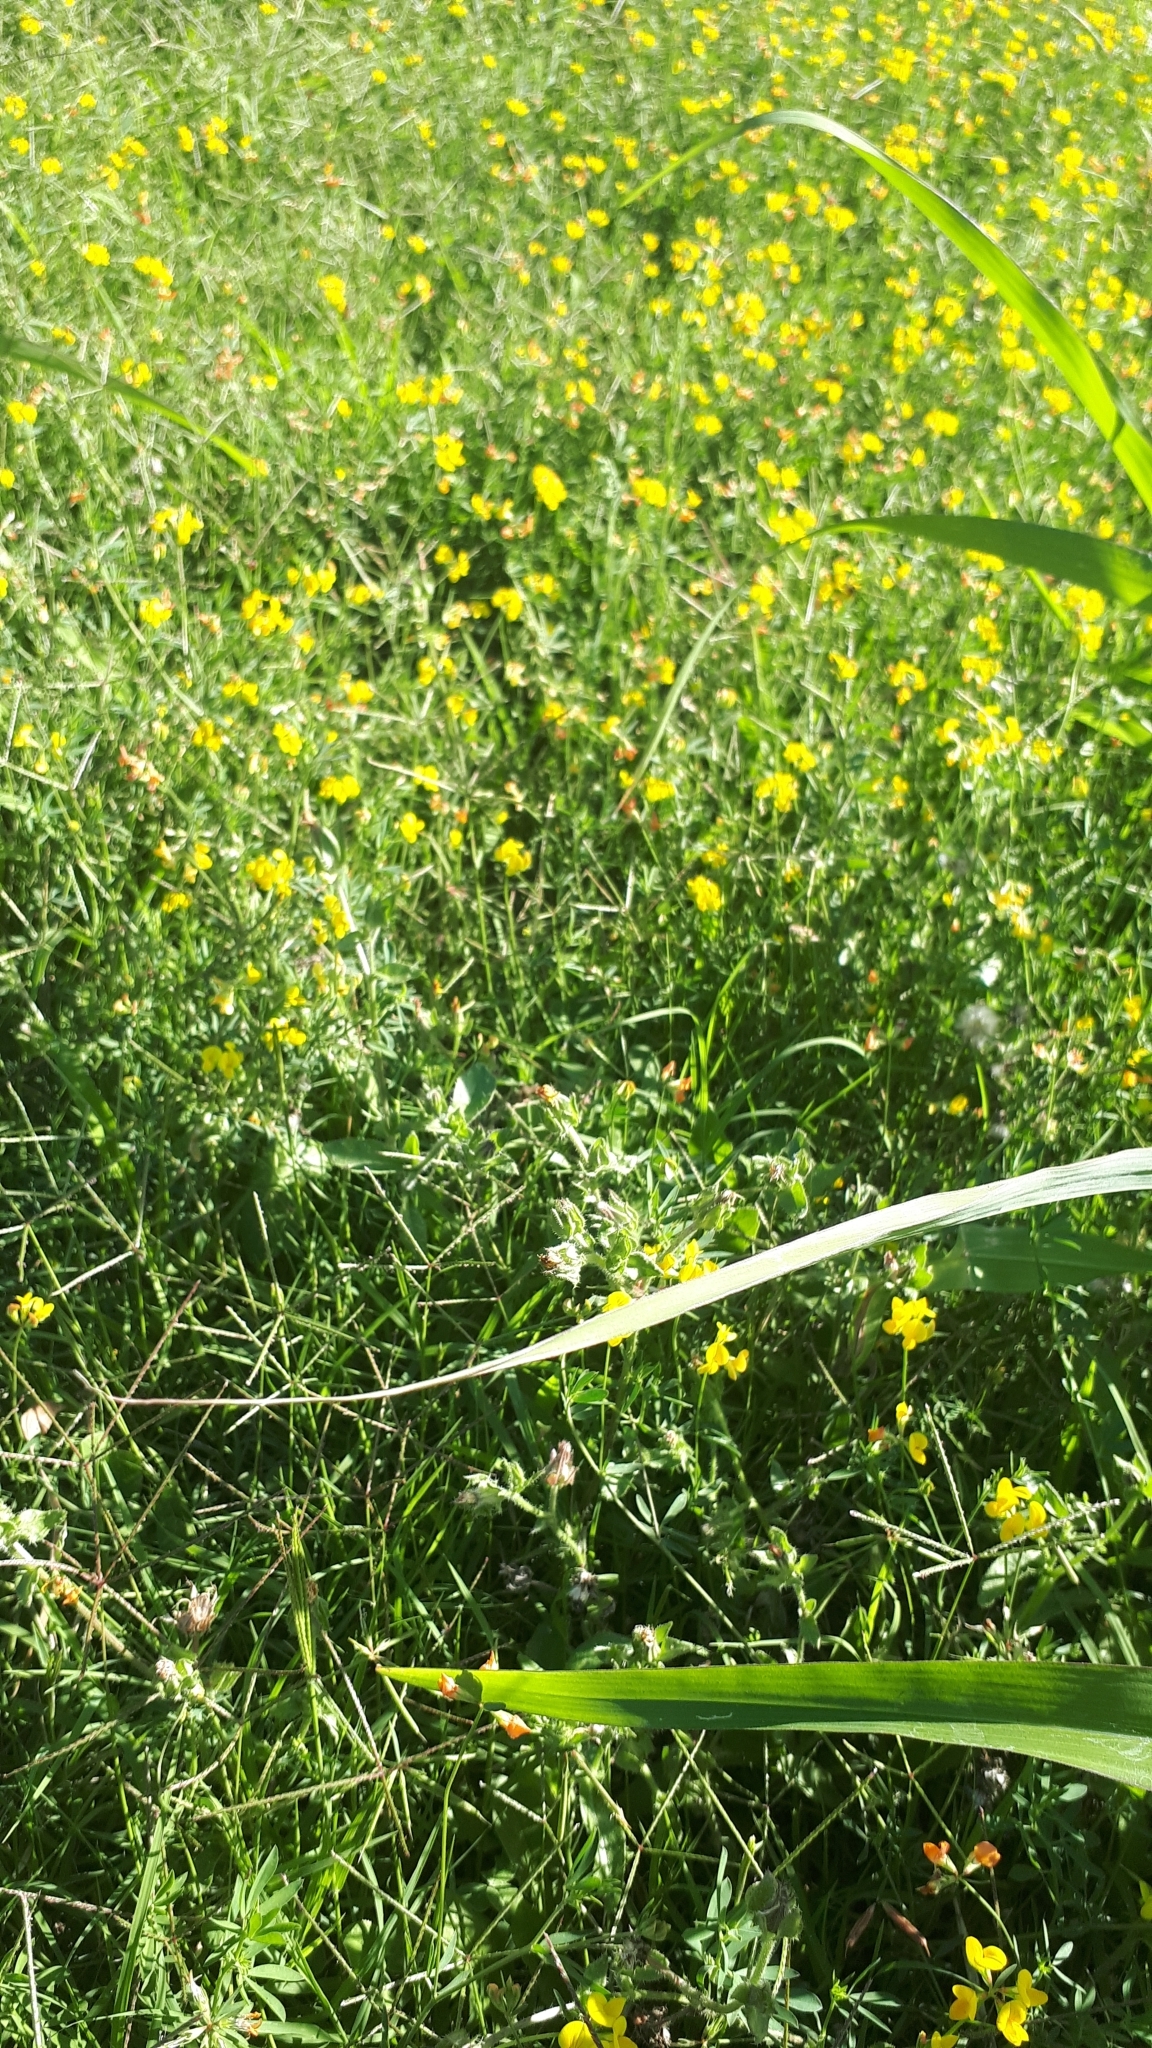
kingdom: Plantae
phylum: Tracheophyta
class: Magnoliopsida
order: Fabales
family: Fabaceae
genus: Lotus
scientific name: Lotus tenuis
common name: Narrow-leaved bird's-foot-trefoil
